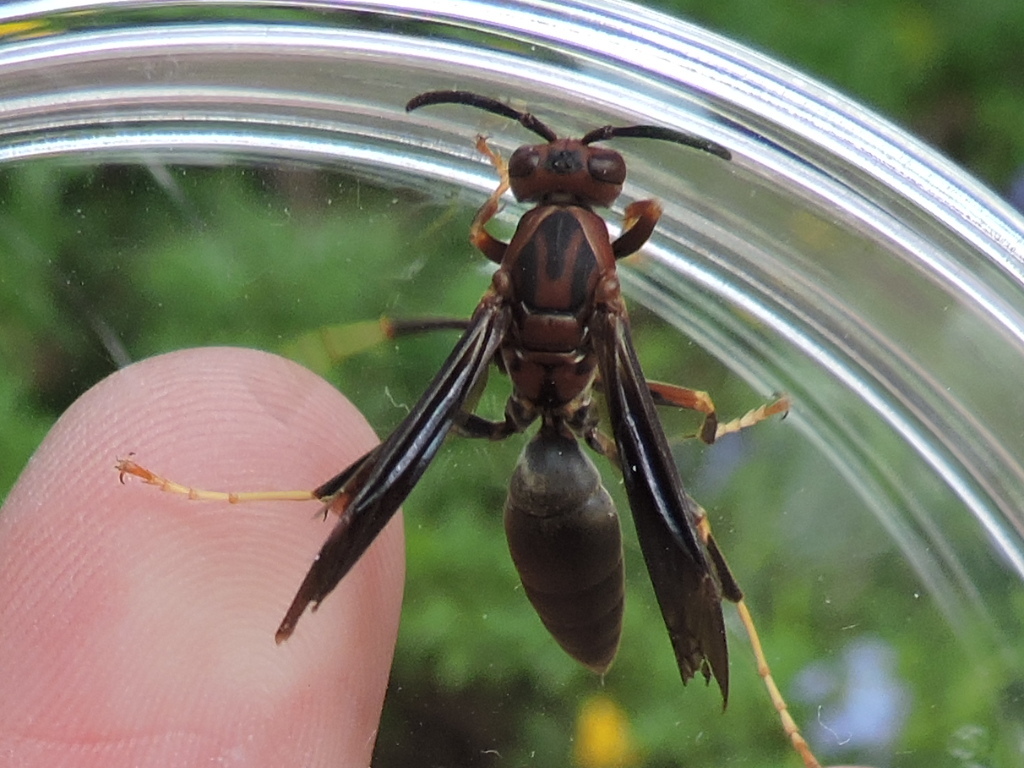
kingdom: Animalia
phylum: Arthropoda
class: Insecta
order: Hymenoptera
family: Eumenidae
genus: Polistes
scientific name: Polistes metricus
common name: Metric paper wasp
